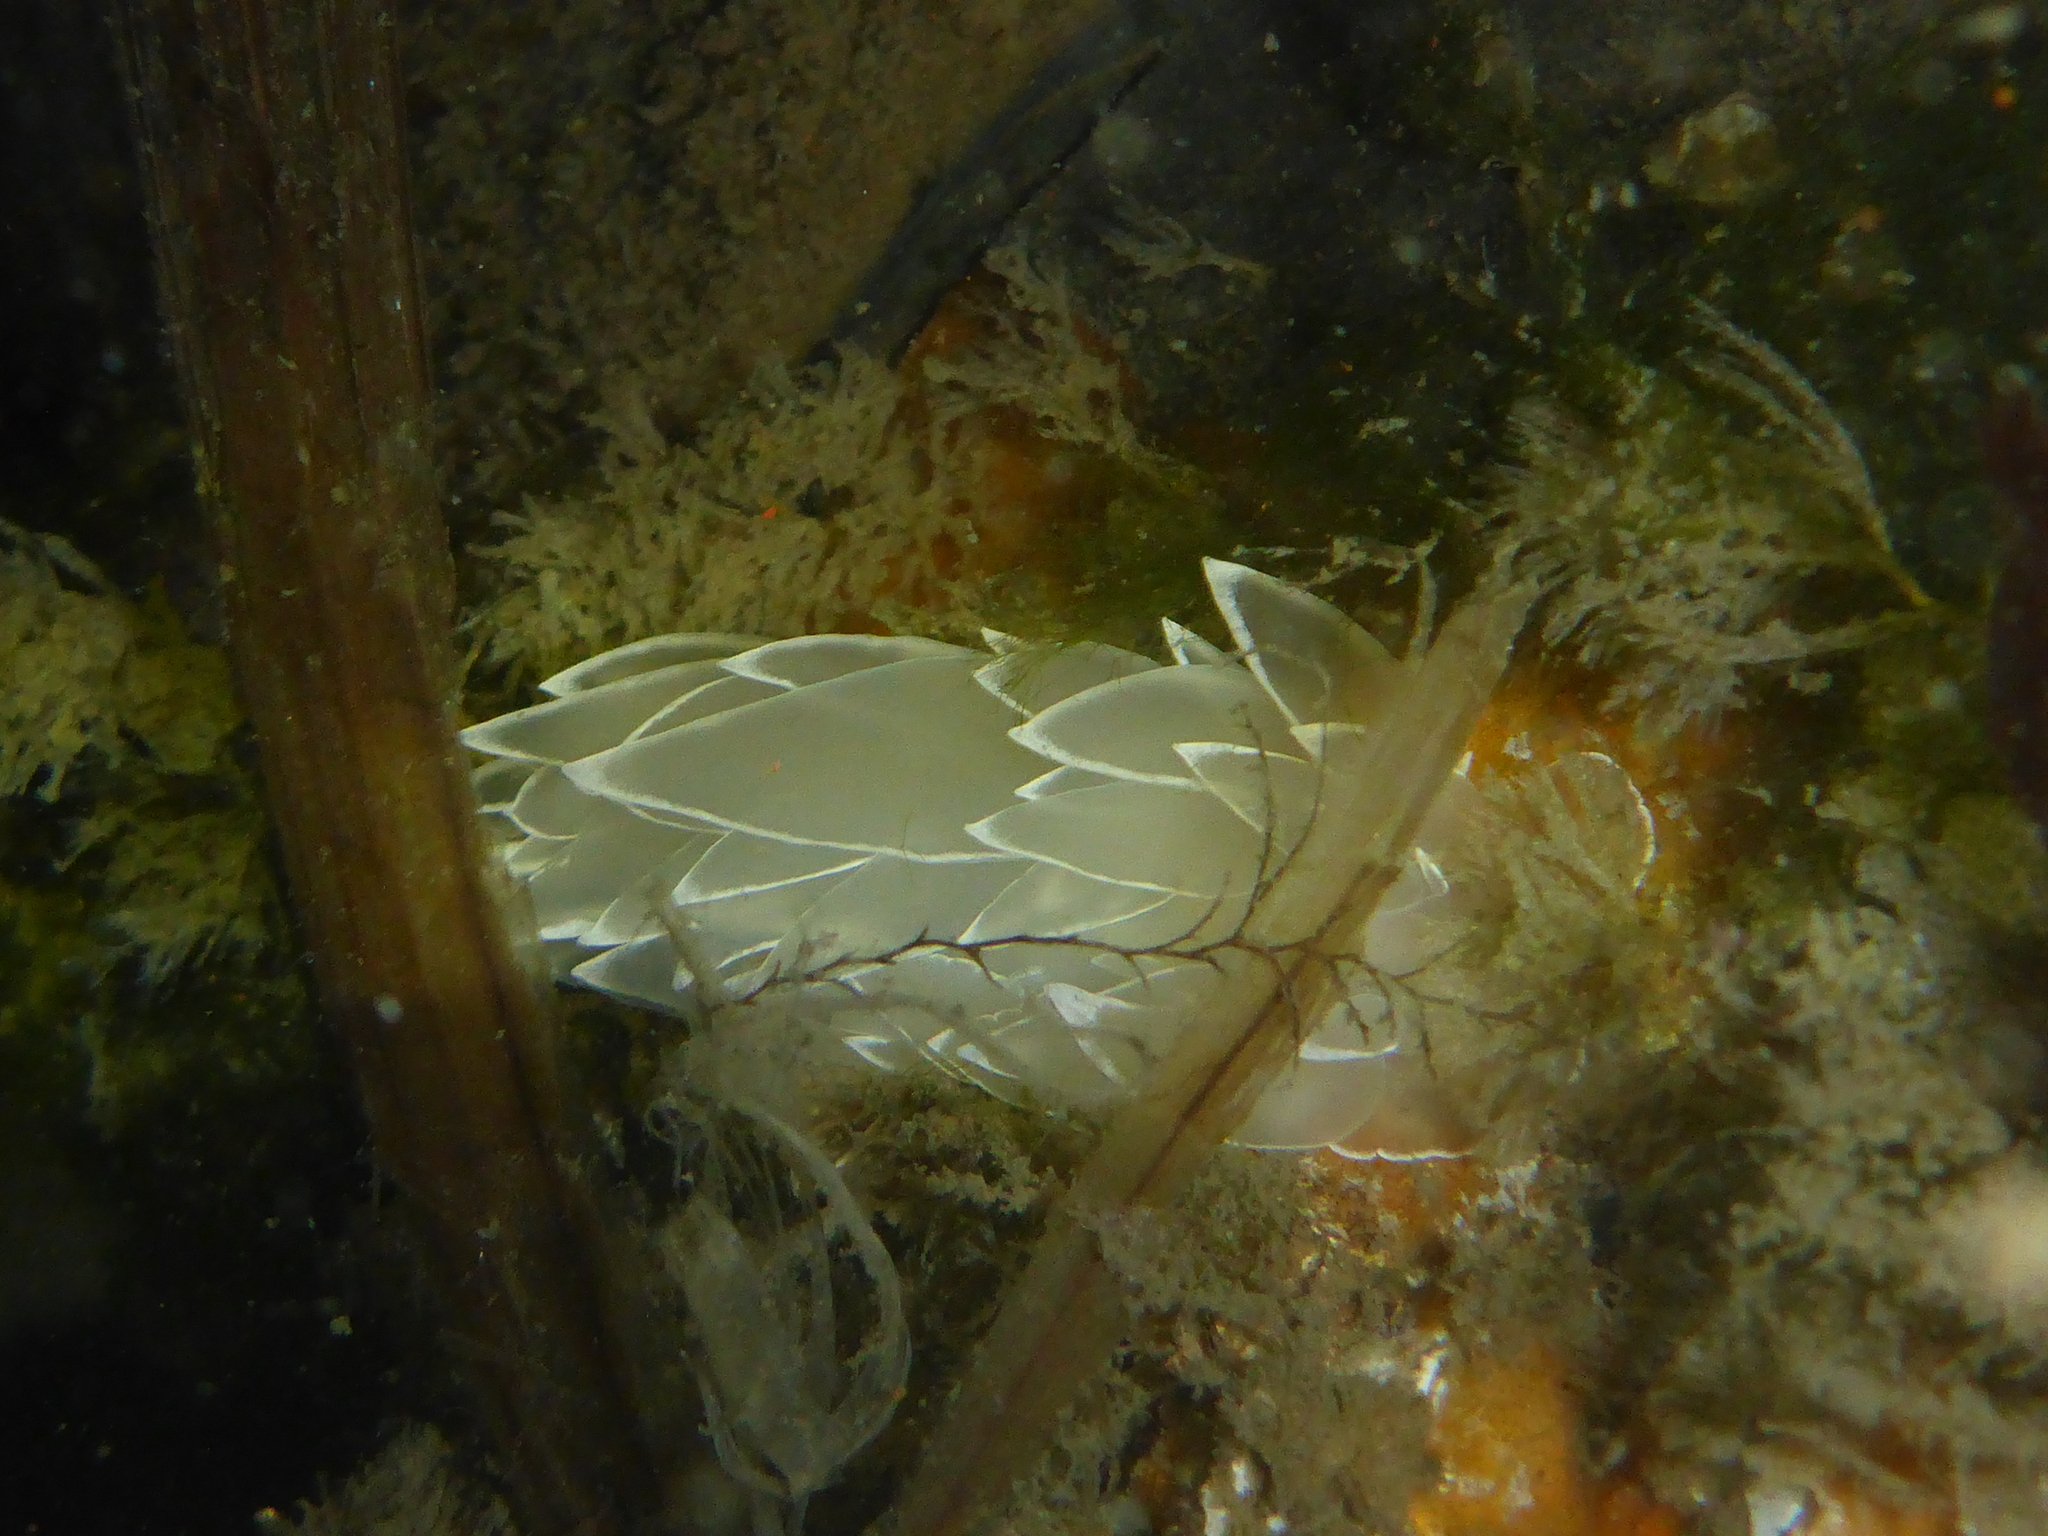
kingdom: Animalia
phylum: Mollusca
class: Gastropoda
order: Nudibranchia
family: Dironidae
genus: Dirona
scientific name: Dirona albolineata
